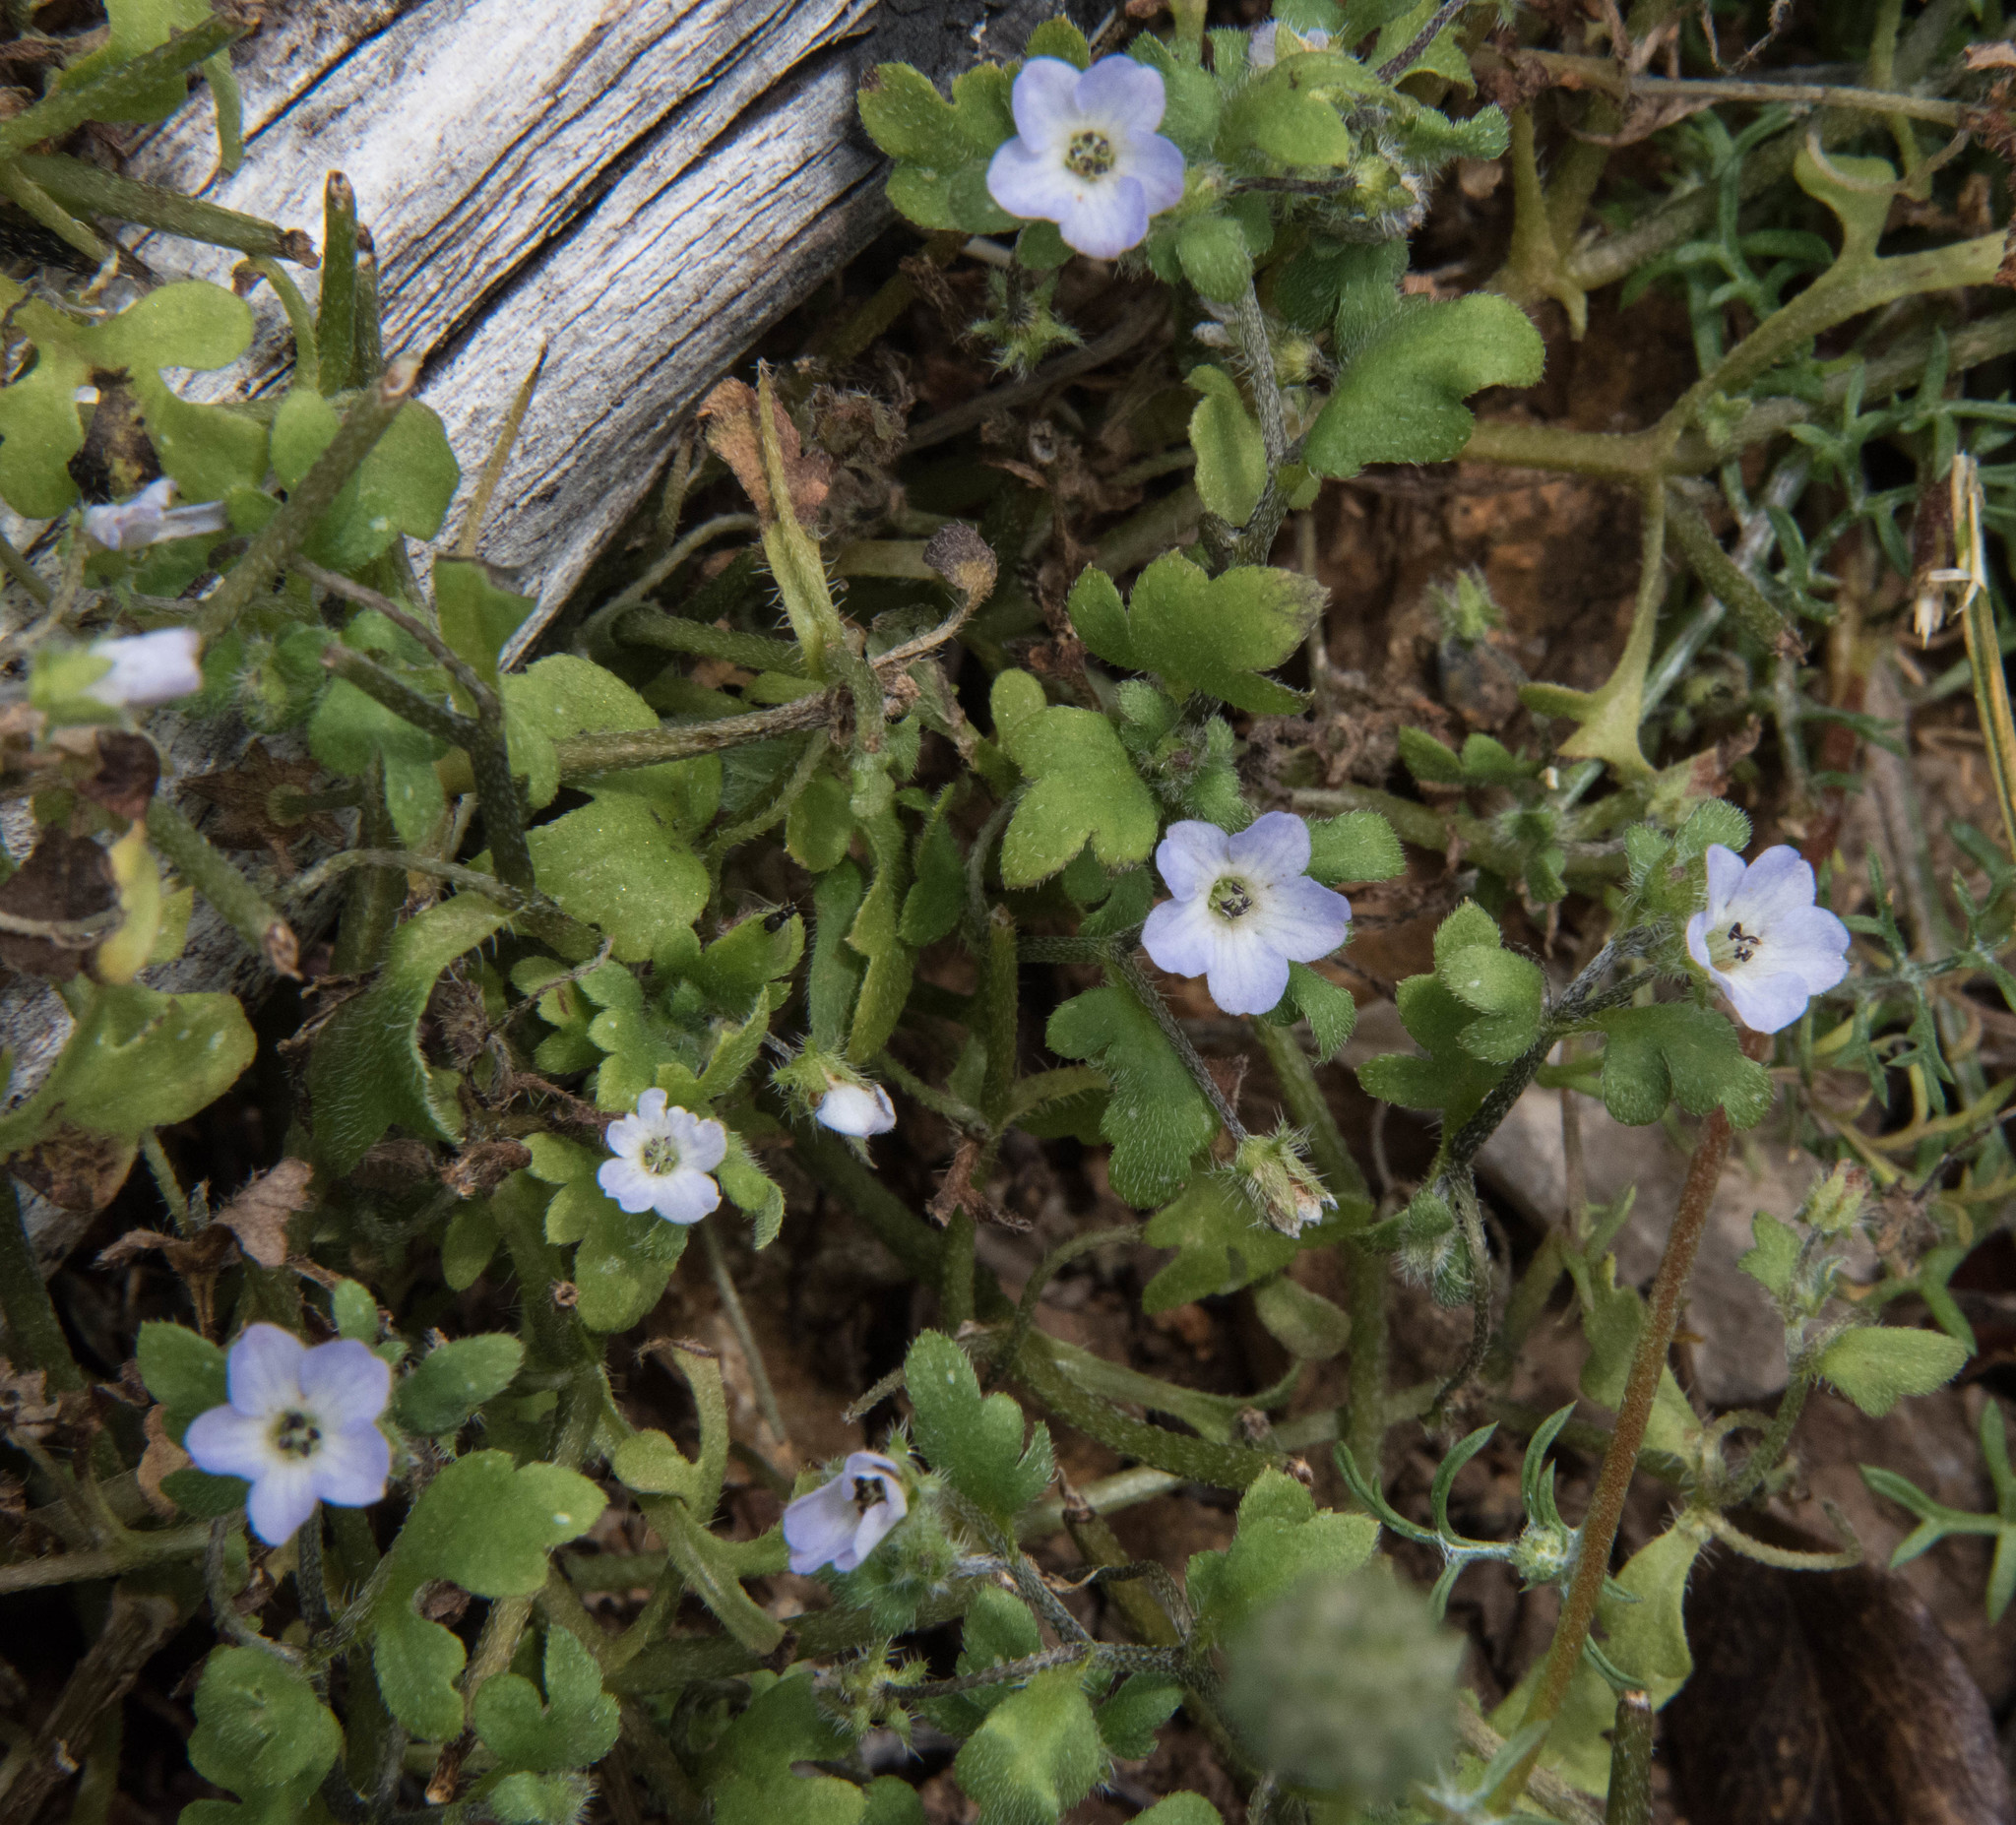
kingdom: Plantae
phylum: Tracheophyta
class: Magnoliopsida
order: Boraginales
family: Hydrophyllaceae
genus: Nemophila
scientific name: Nemophila parviflora
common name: Small-flowered baby-blue-eyes
